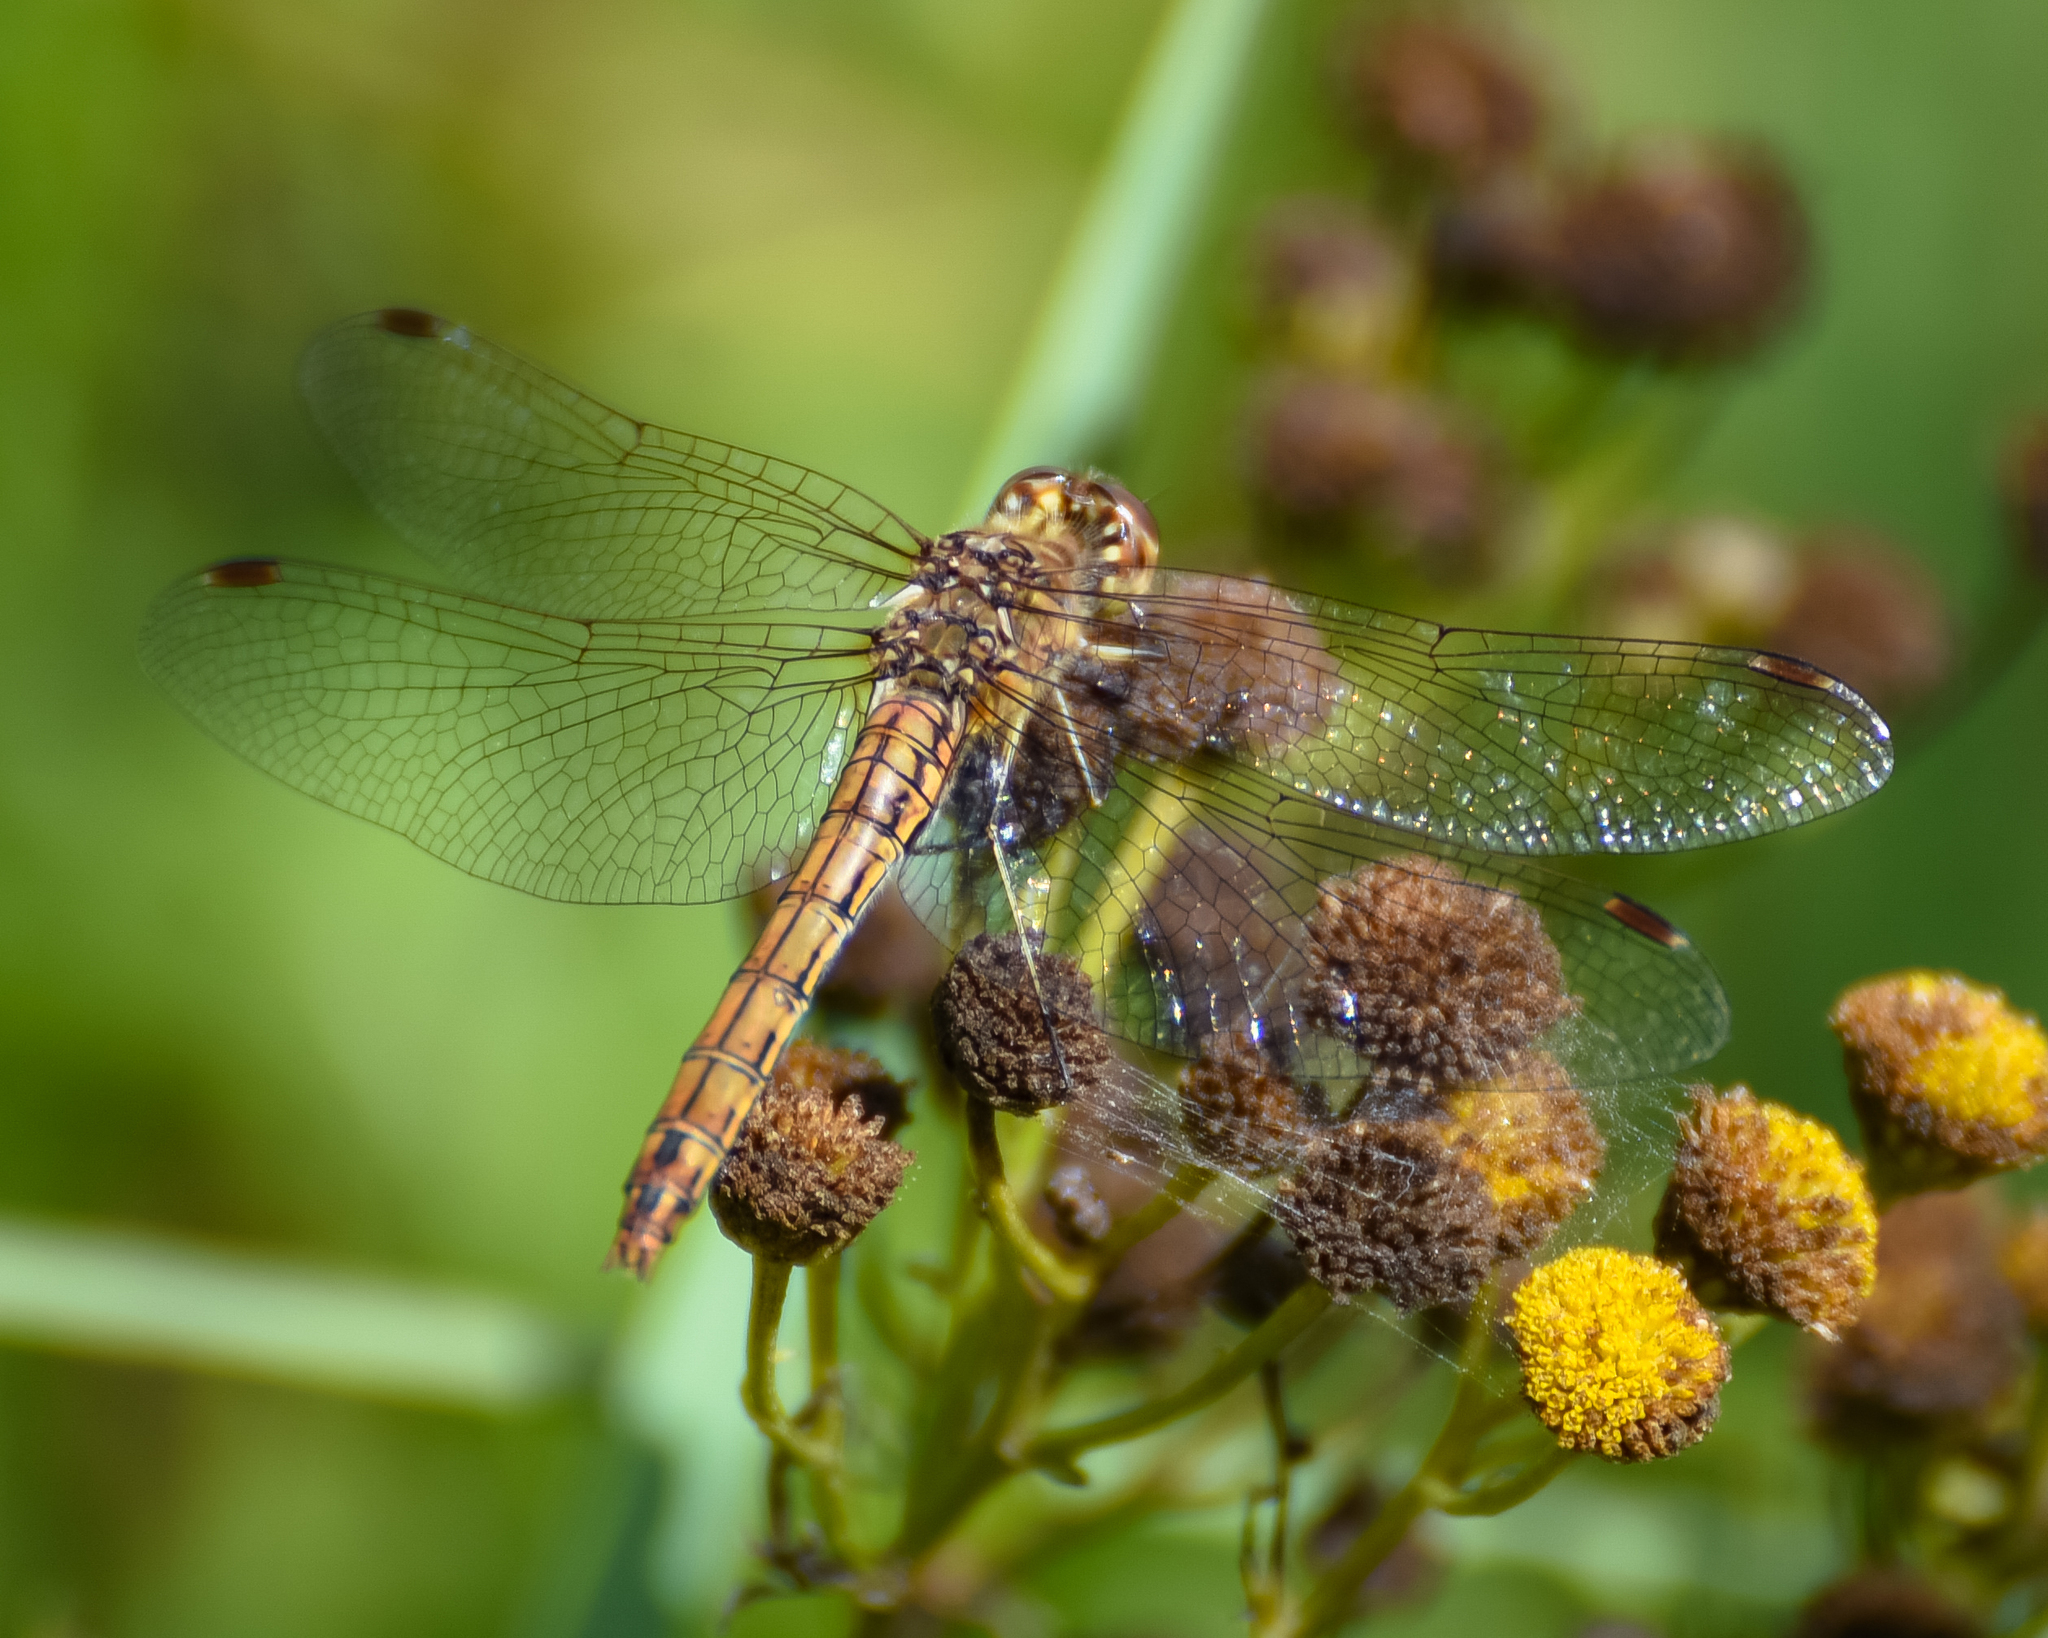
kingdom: Animalia
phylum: Arthropoda
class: Insecta
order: Odonata
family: Libellulidae
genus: Sympetrum
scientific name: Sympetrum vulgatum
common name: Vagrant darter
